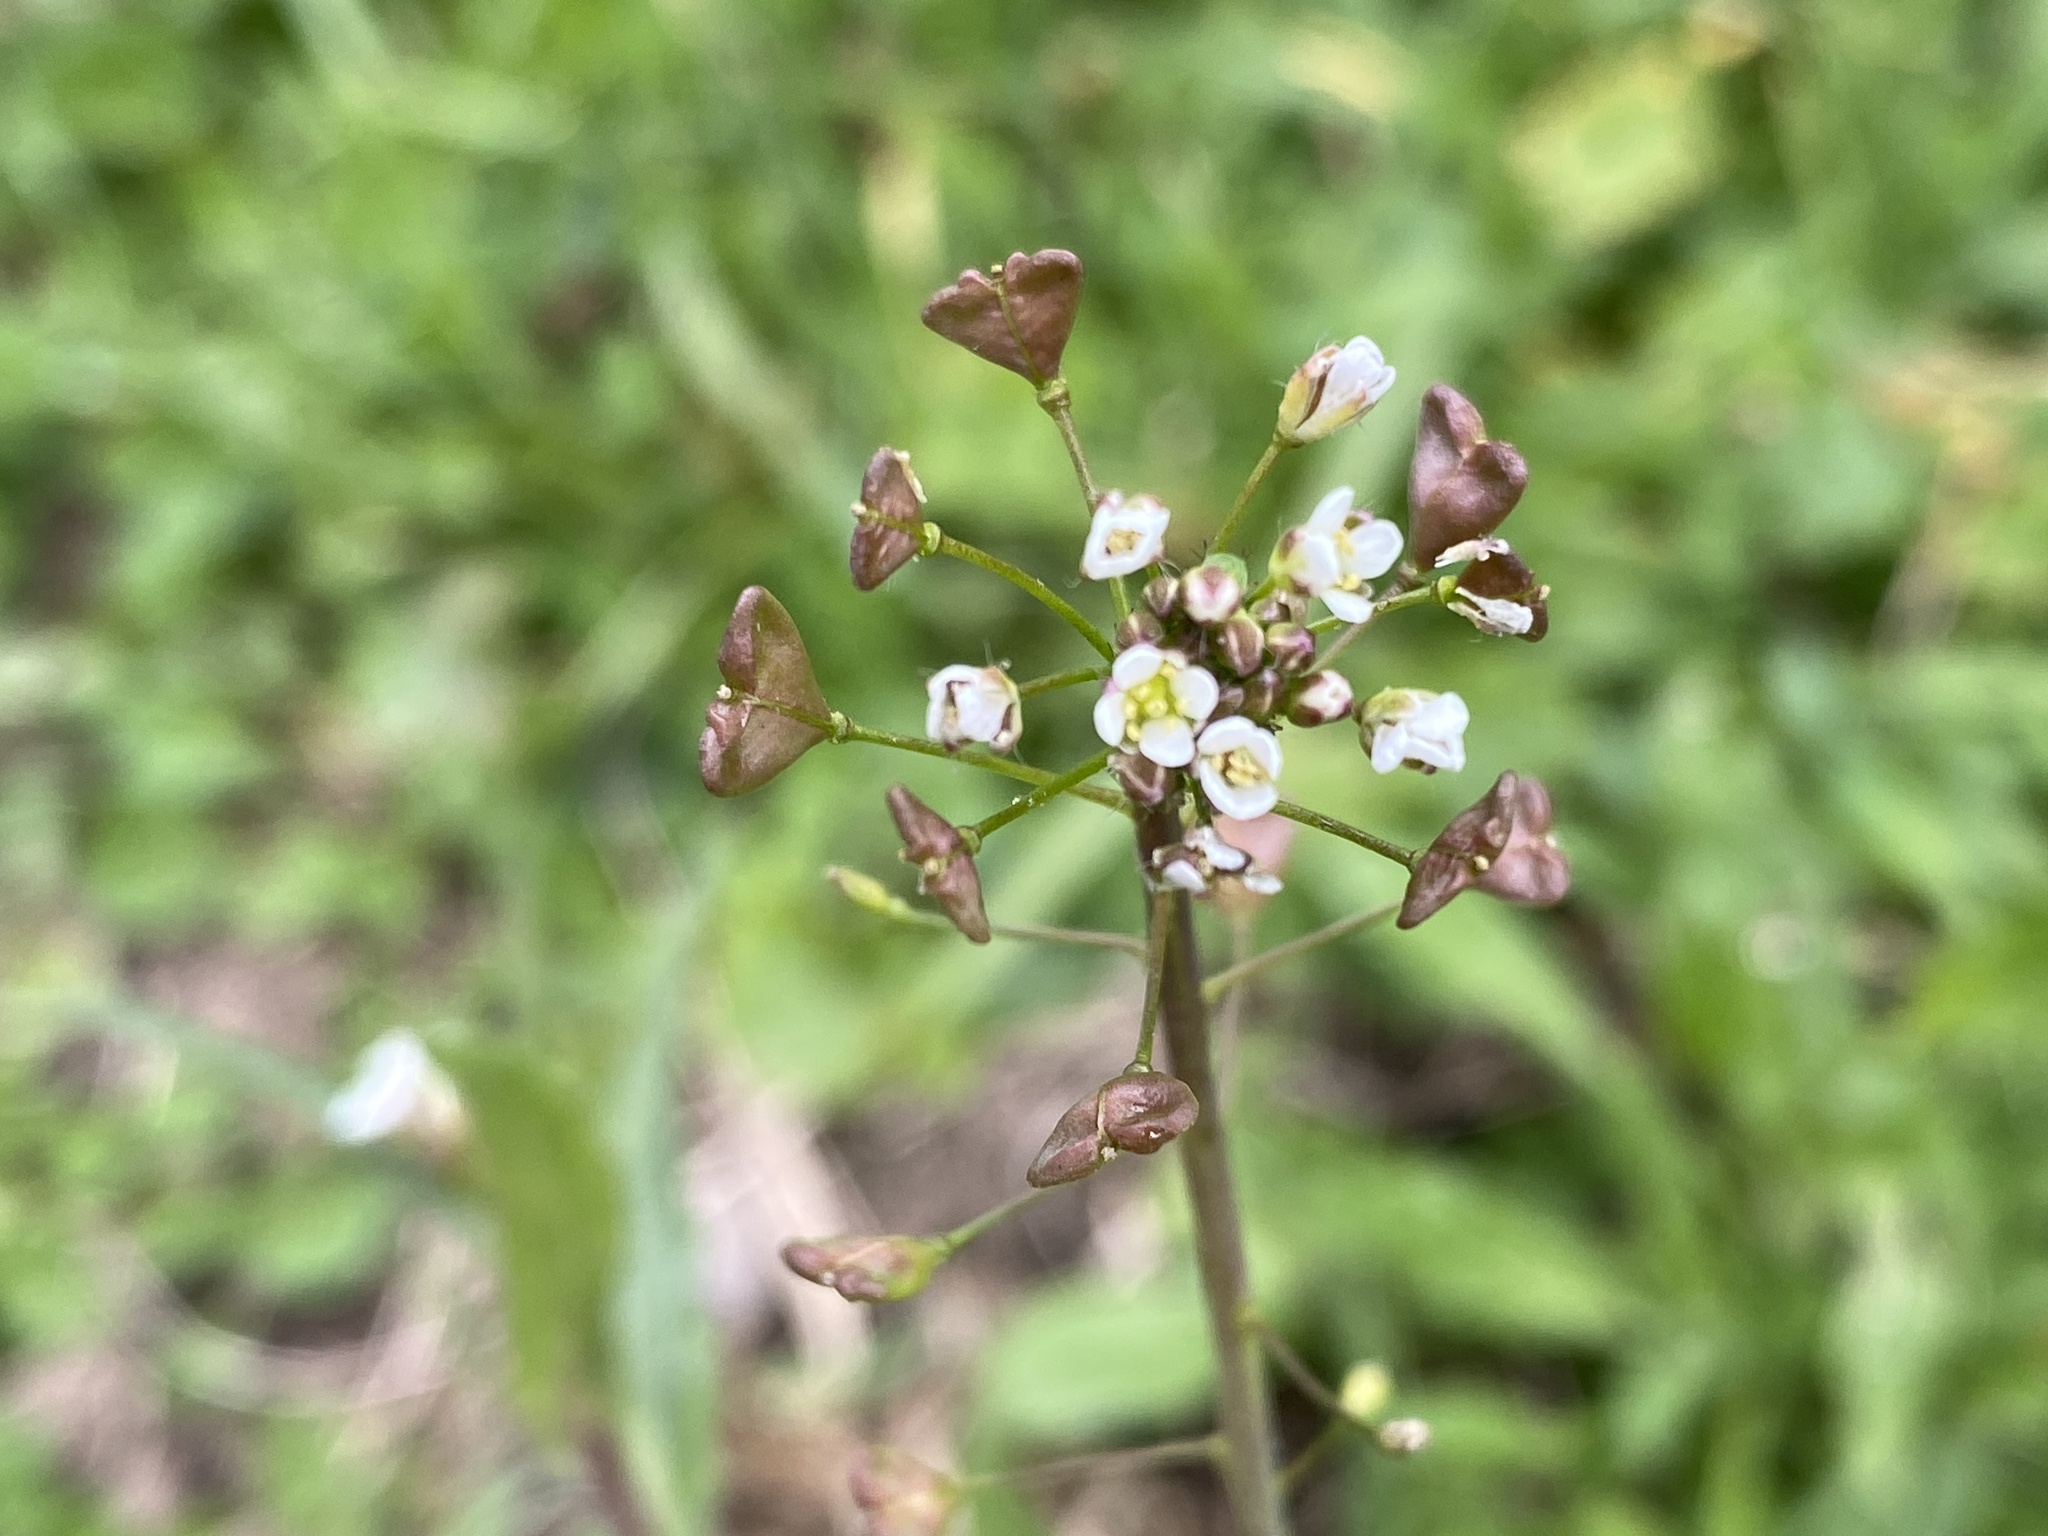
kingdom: Plantae
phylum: Tracheophyta
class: Magnoliopsida
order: Brassicales
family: Brassicaceae
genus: Capsella
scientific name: Capsella bursa-pastoris
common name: Shepherd's purse
